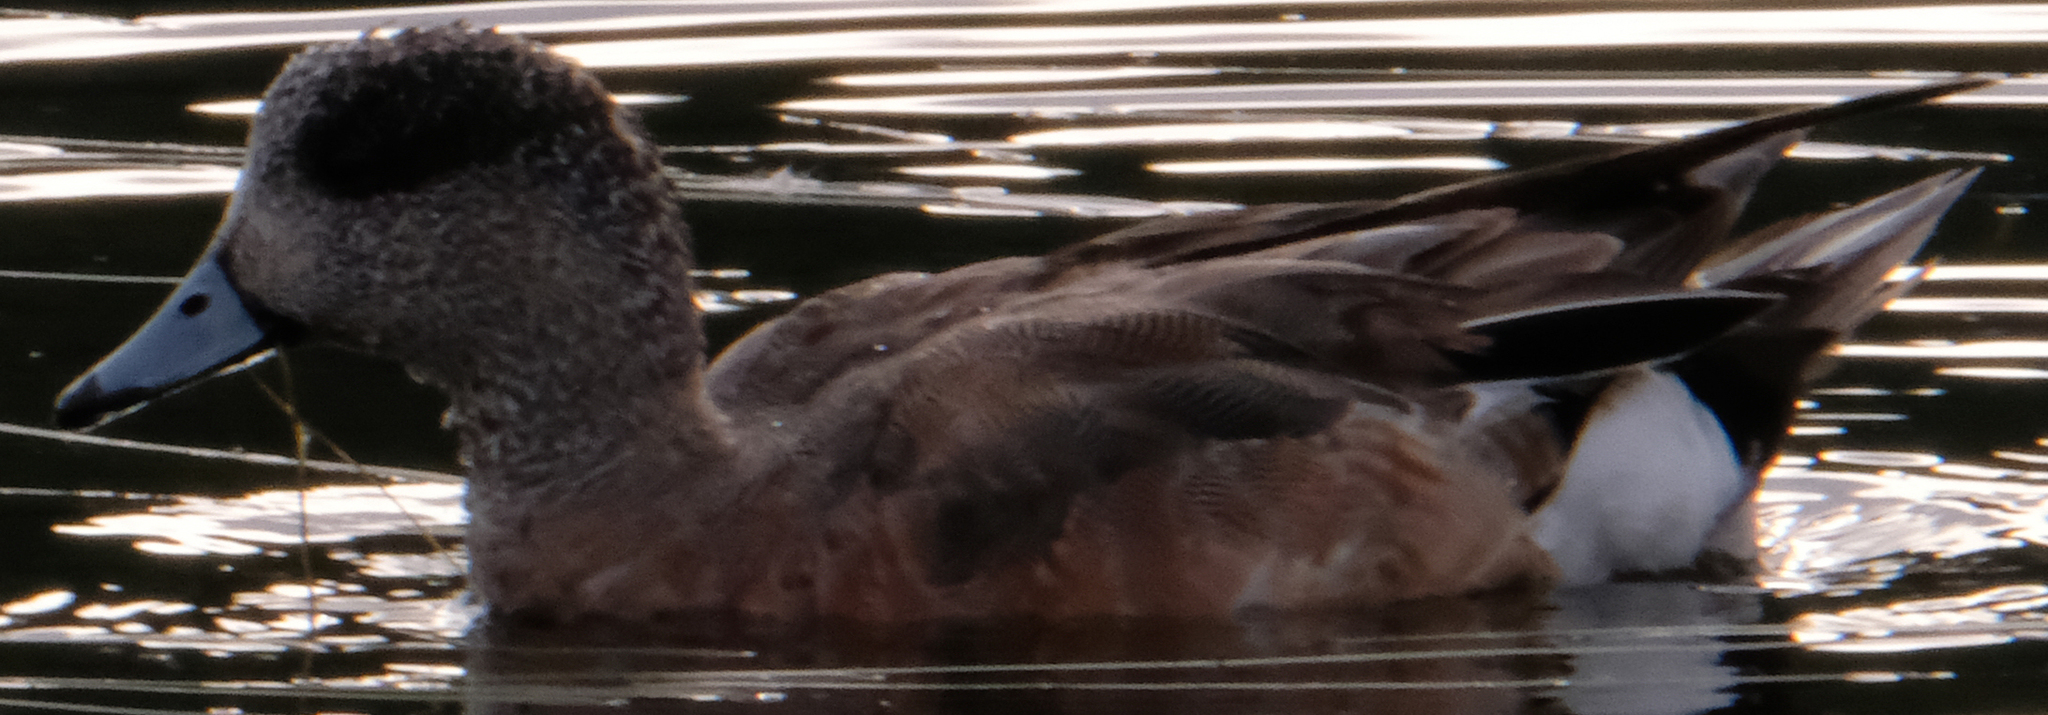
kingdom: Animalia
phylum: Chordata
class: Aves
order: Anseriformes
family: Anatidae
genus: Mareca
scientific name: Mareca strepera
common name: Gadwall
